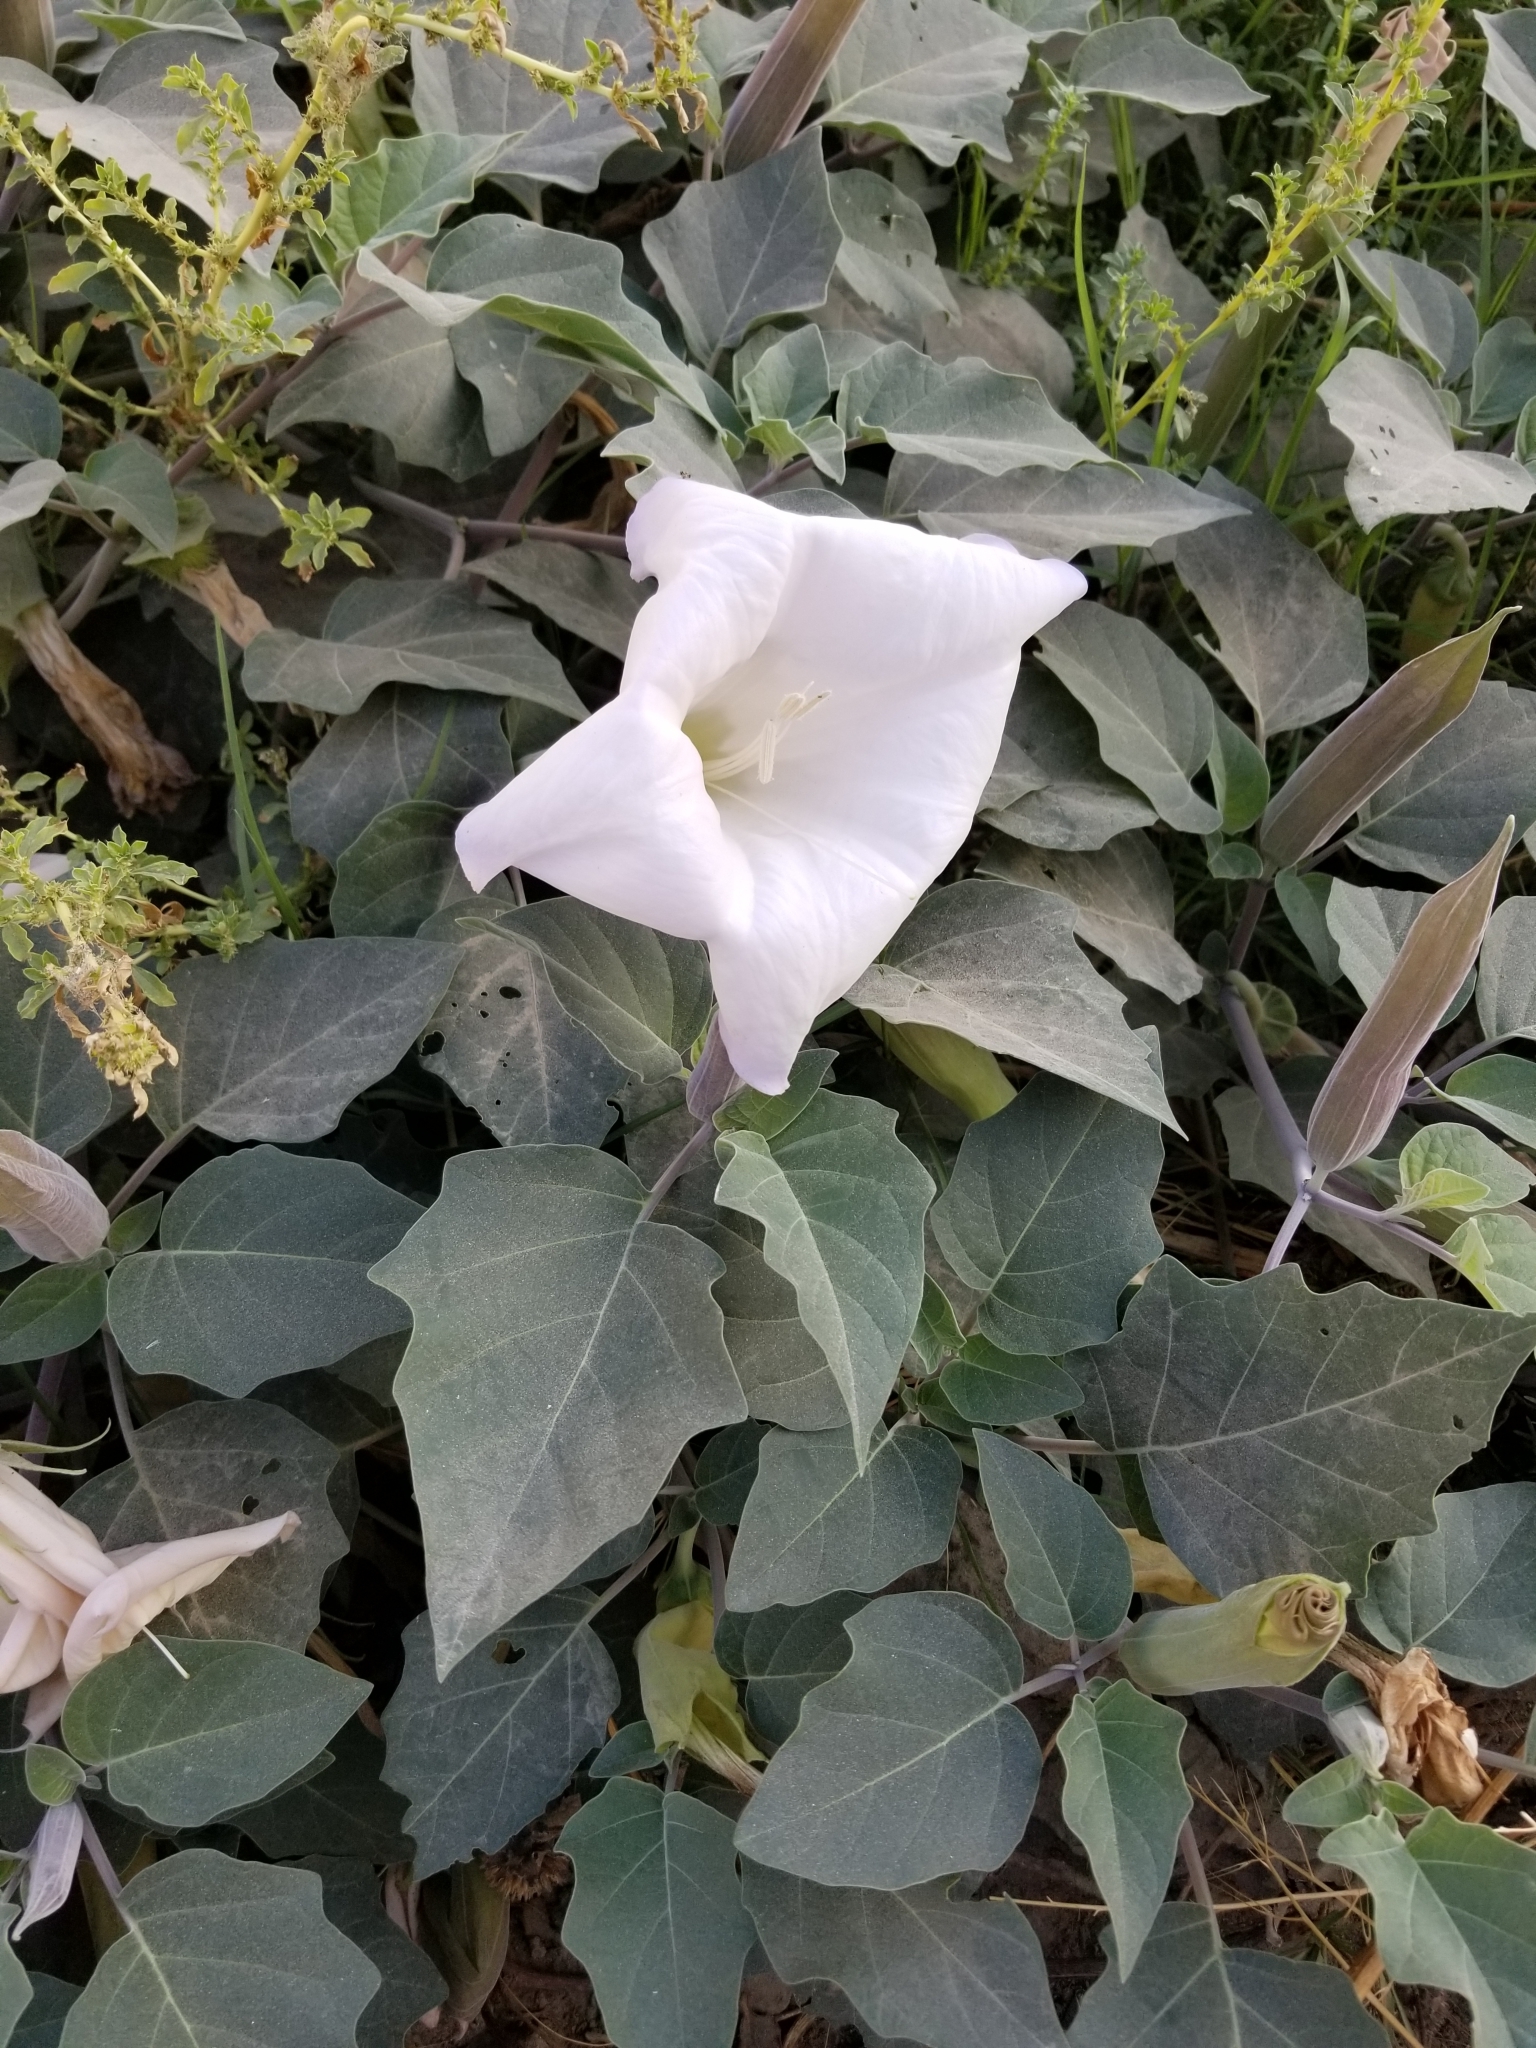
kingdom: Plantae
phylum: Tracheophyta
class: Magnoliopsida
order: Solanales
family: Solanaceae
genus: Datura
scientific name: Datura wrightii
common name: Sacred thorn-apple
